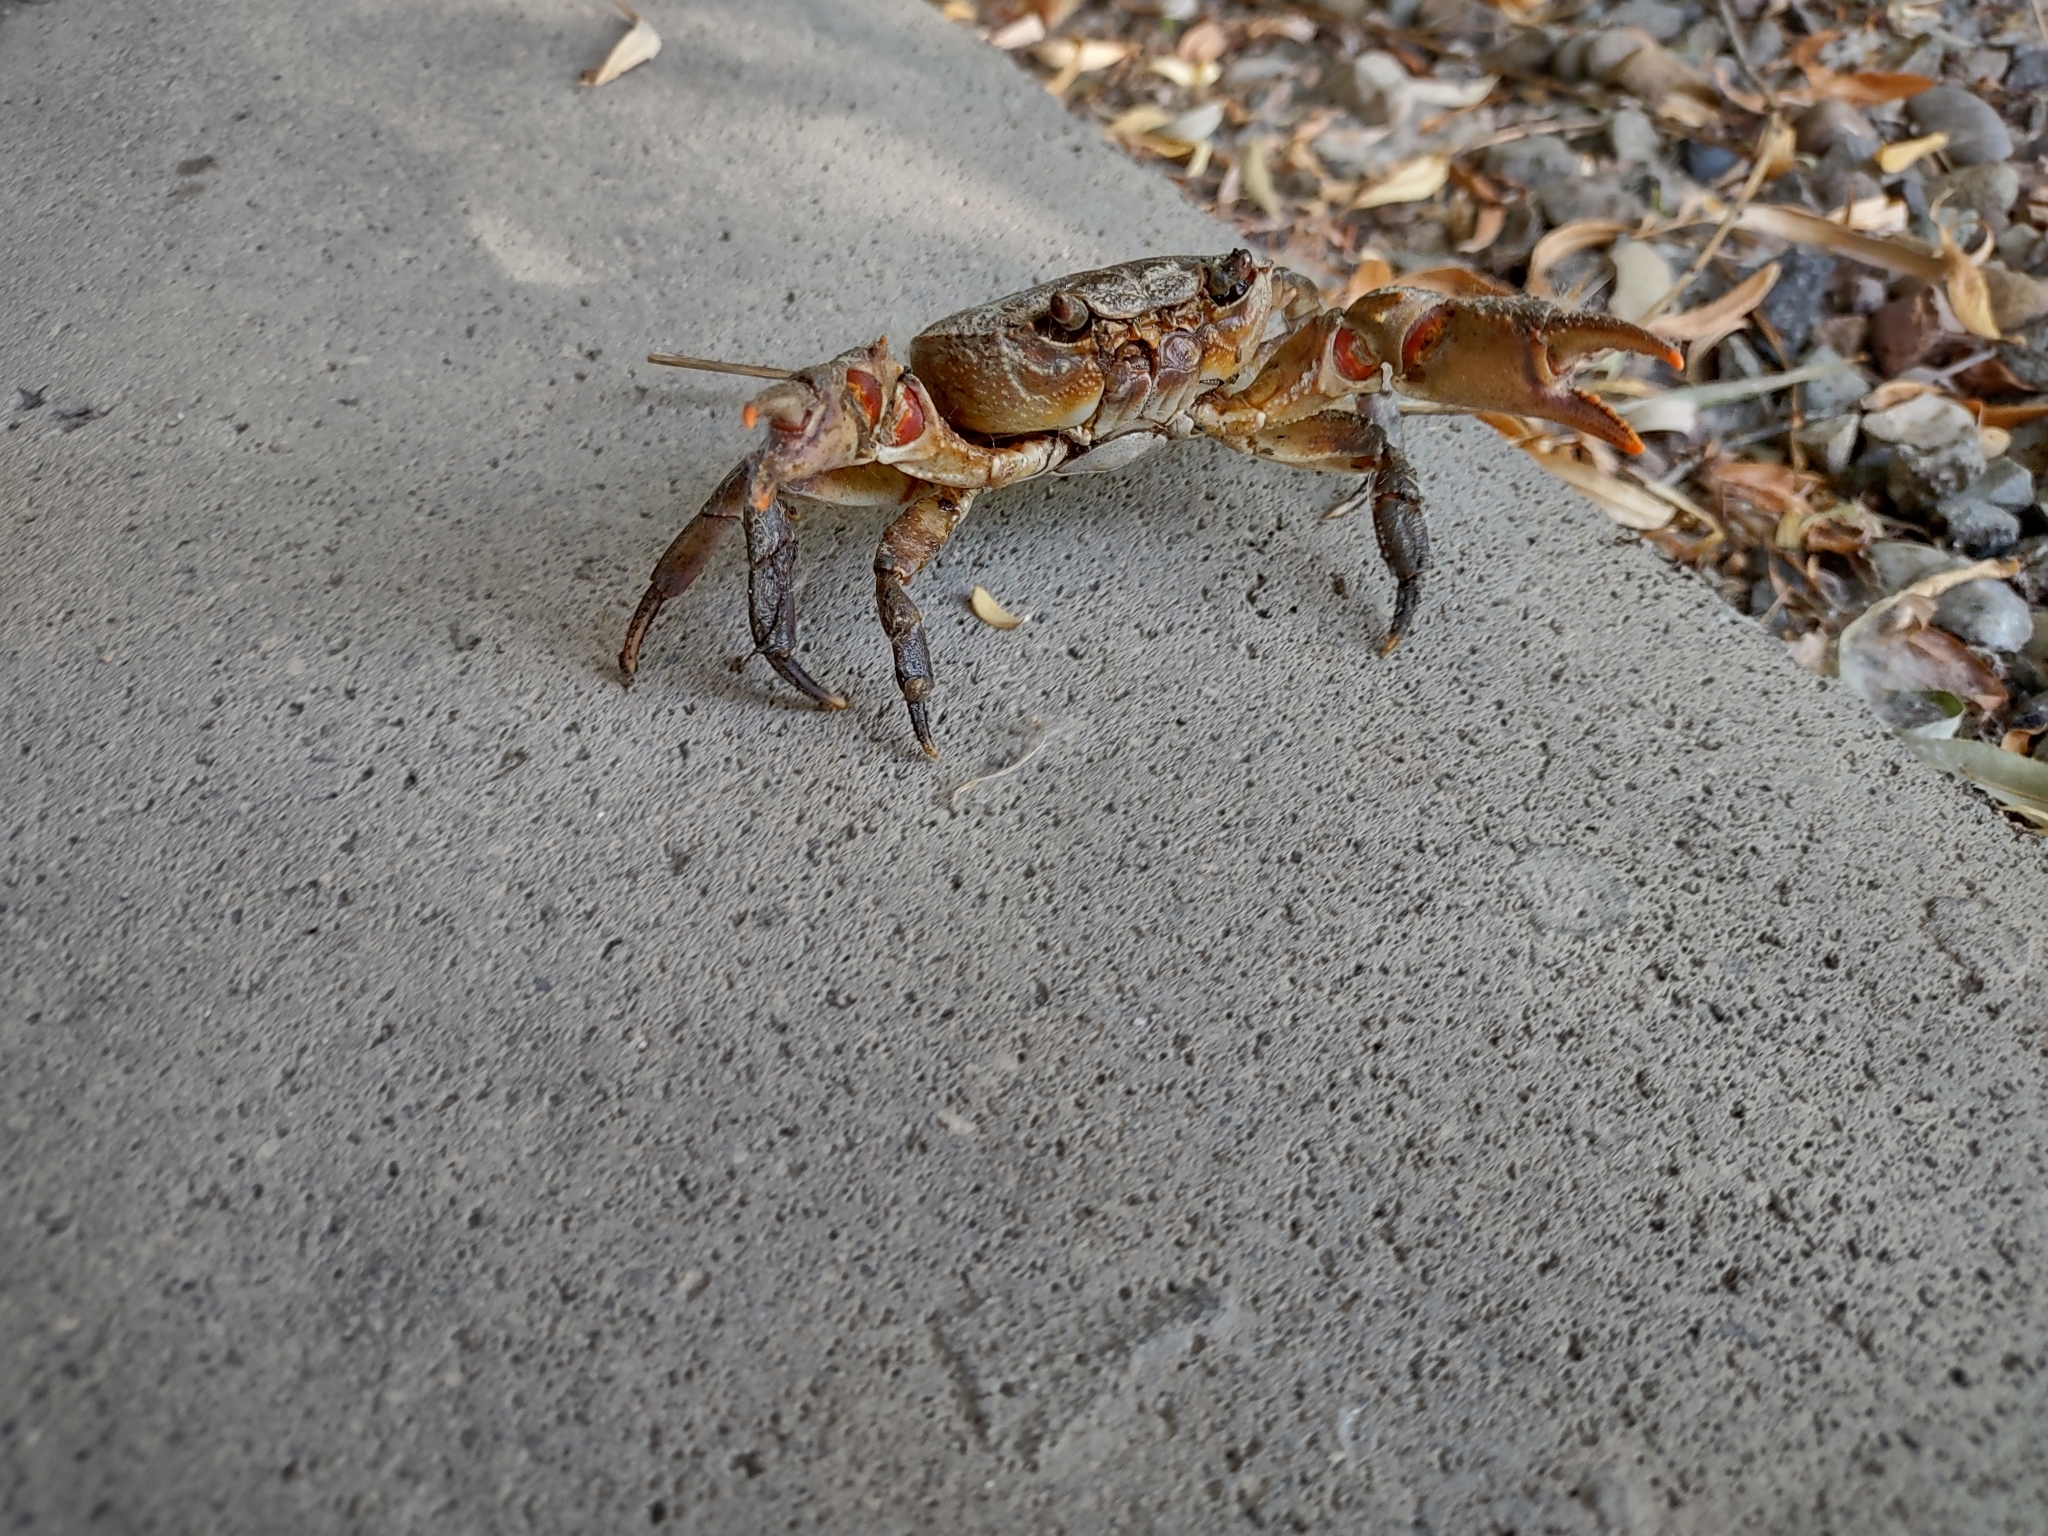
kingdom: Animalia
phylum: Arthropoda
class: Malacostraca
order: Decapoda
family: Potamidae
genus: Potamon
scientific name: Potamon ibericum
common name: Bieberstein's freshwater crab
